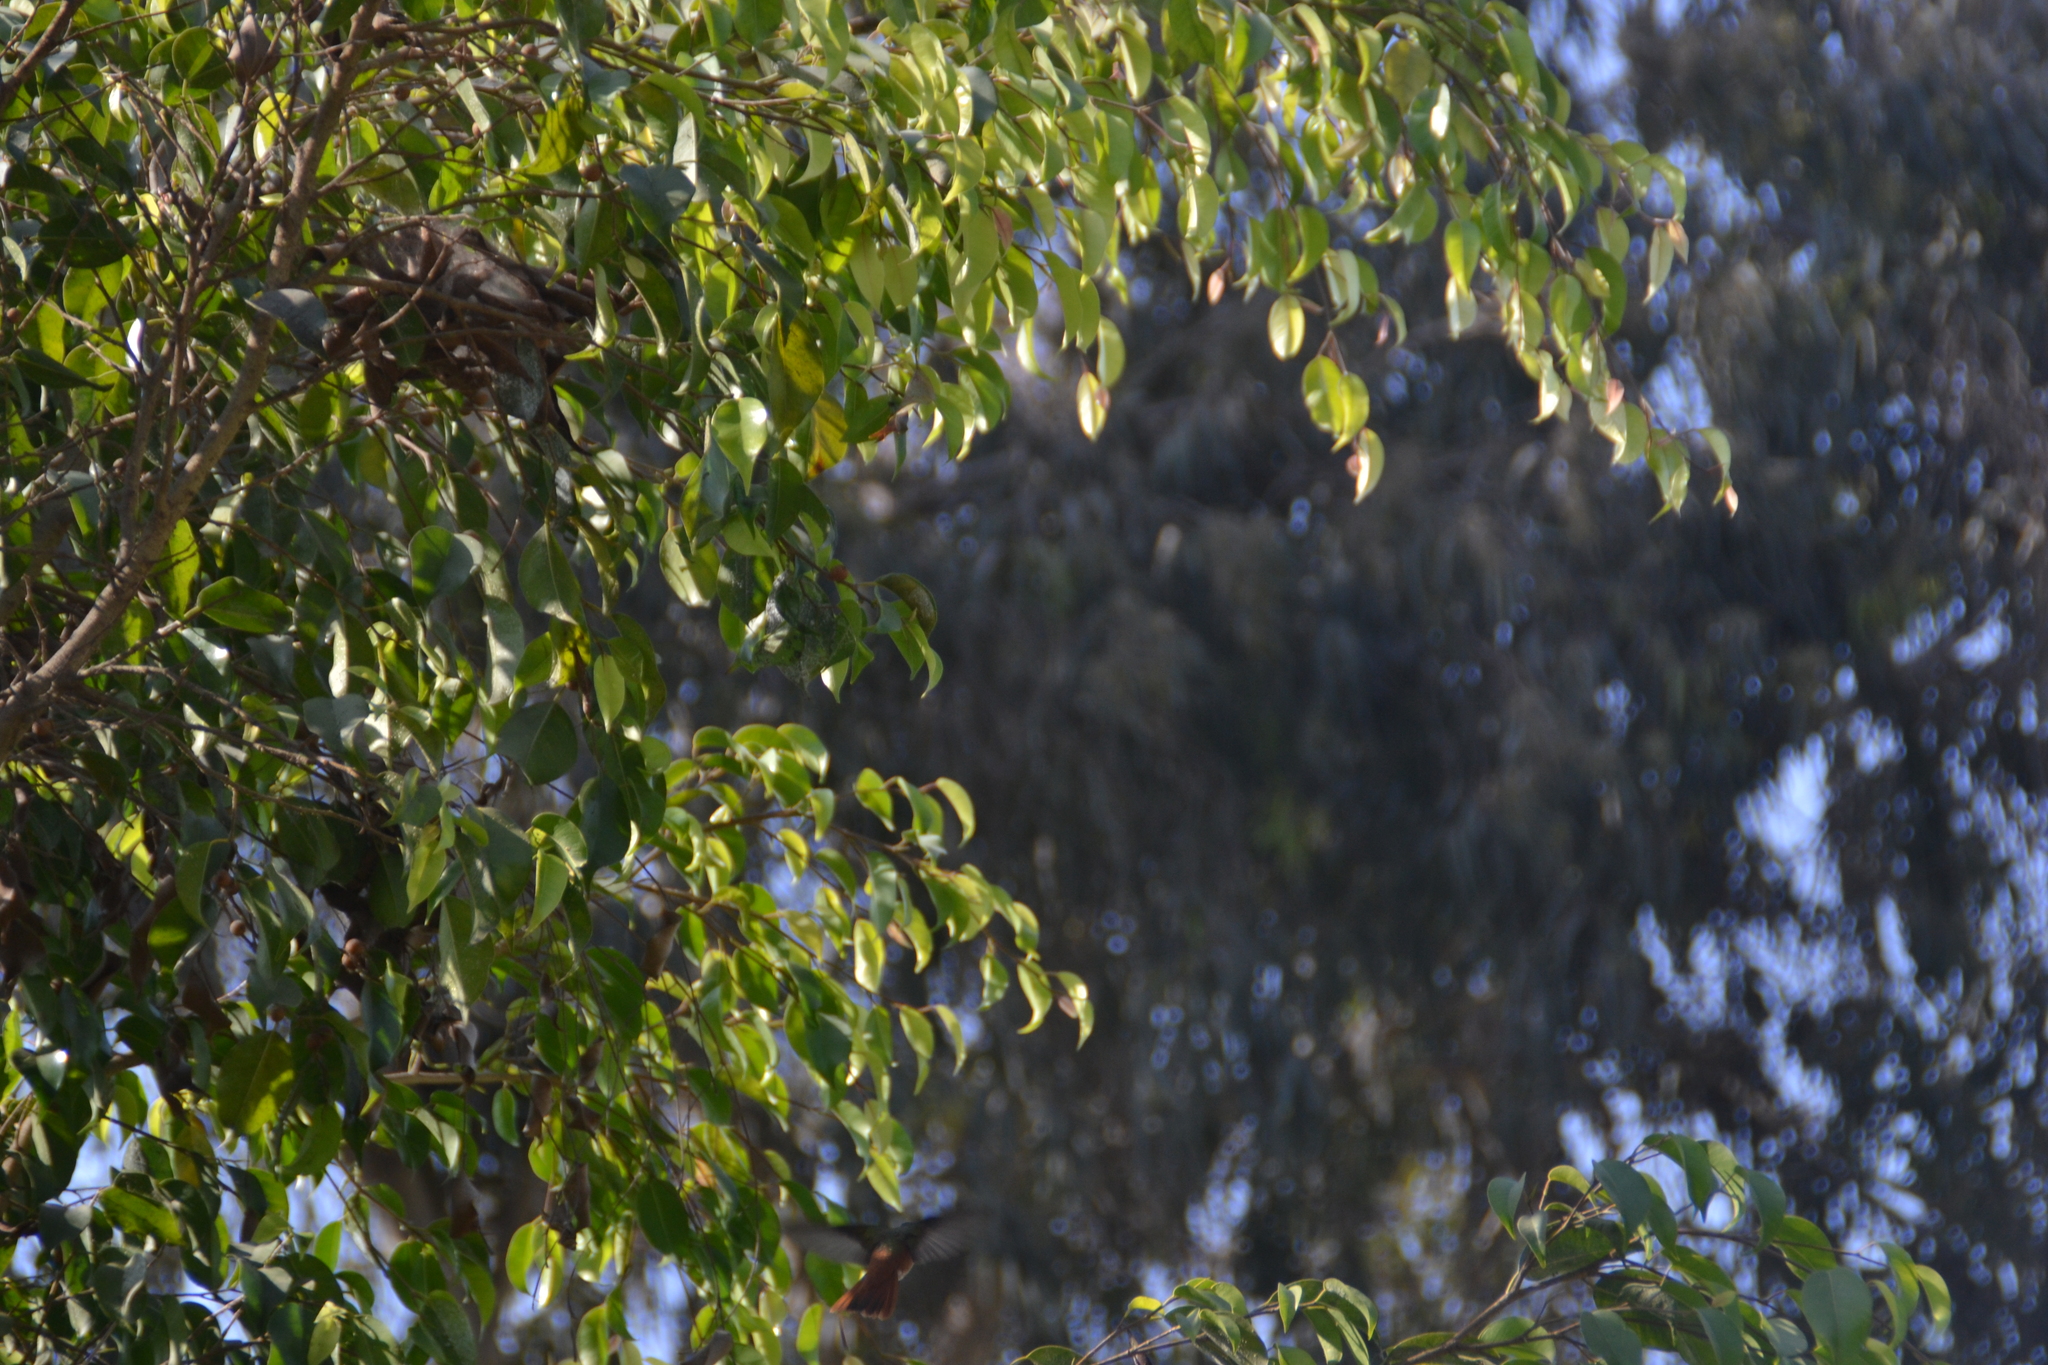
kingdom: Animalia
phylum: Chordata
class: Aves
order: Apodiformes
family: Trochilidae
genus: Amazilis
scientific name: Amazilis amazilia
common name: Amazilia hummingbird
